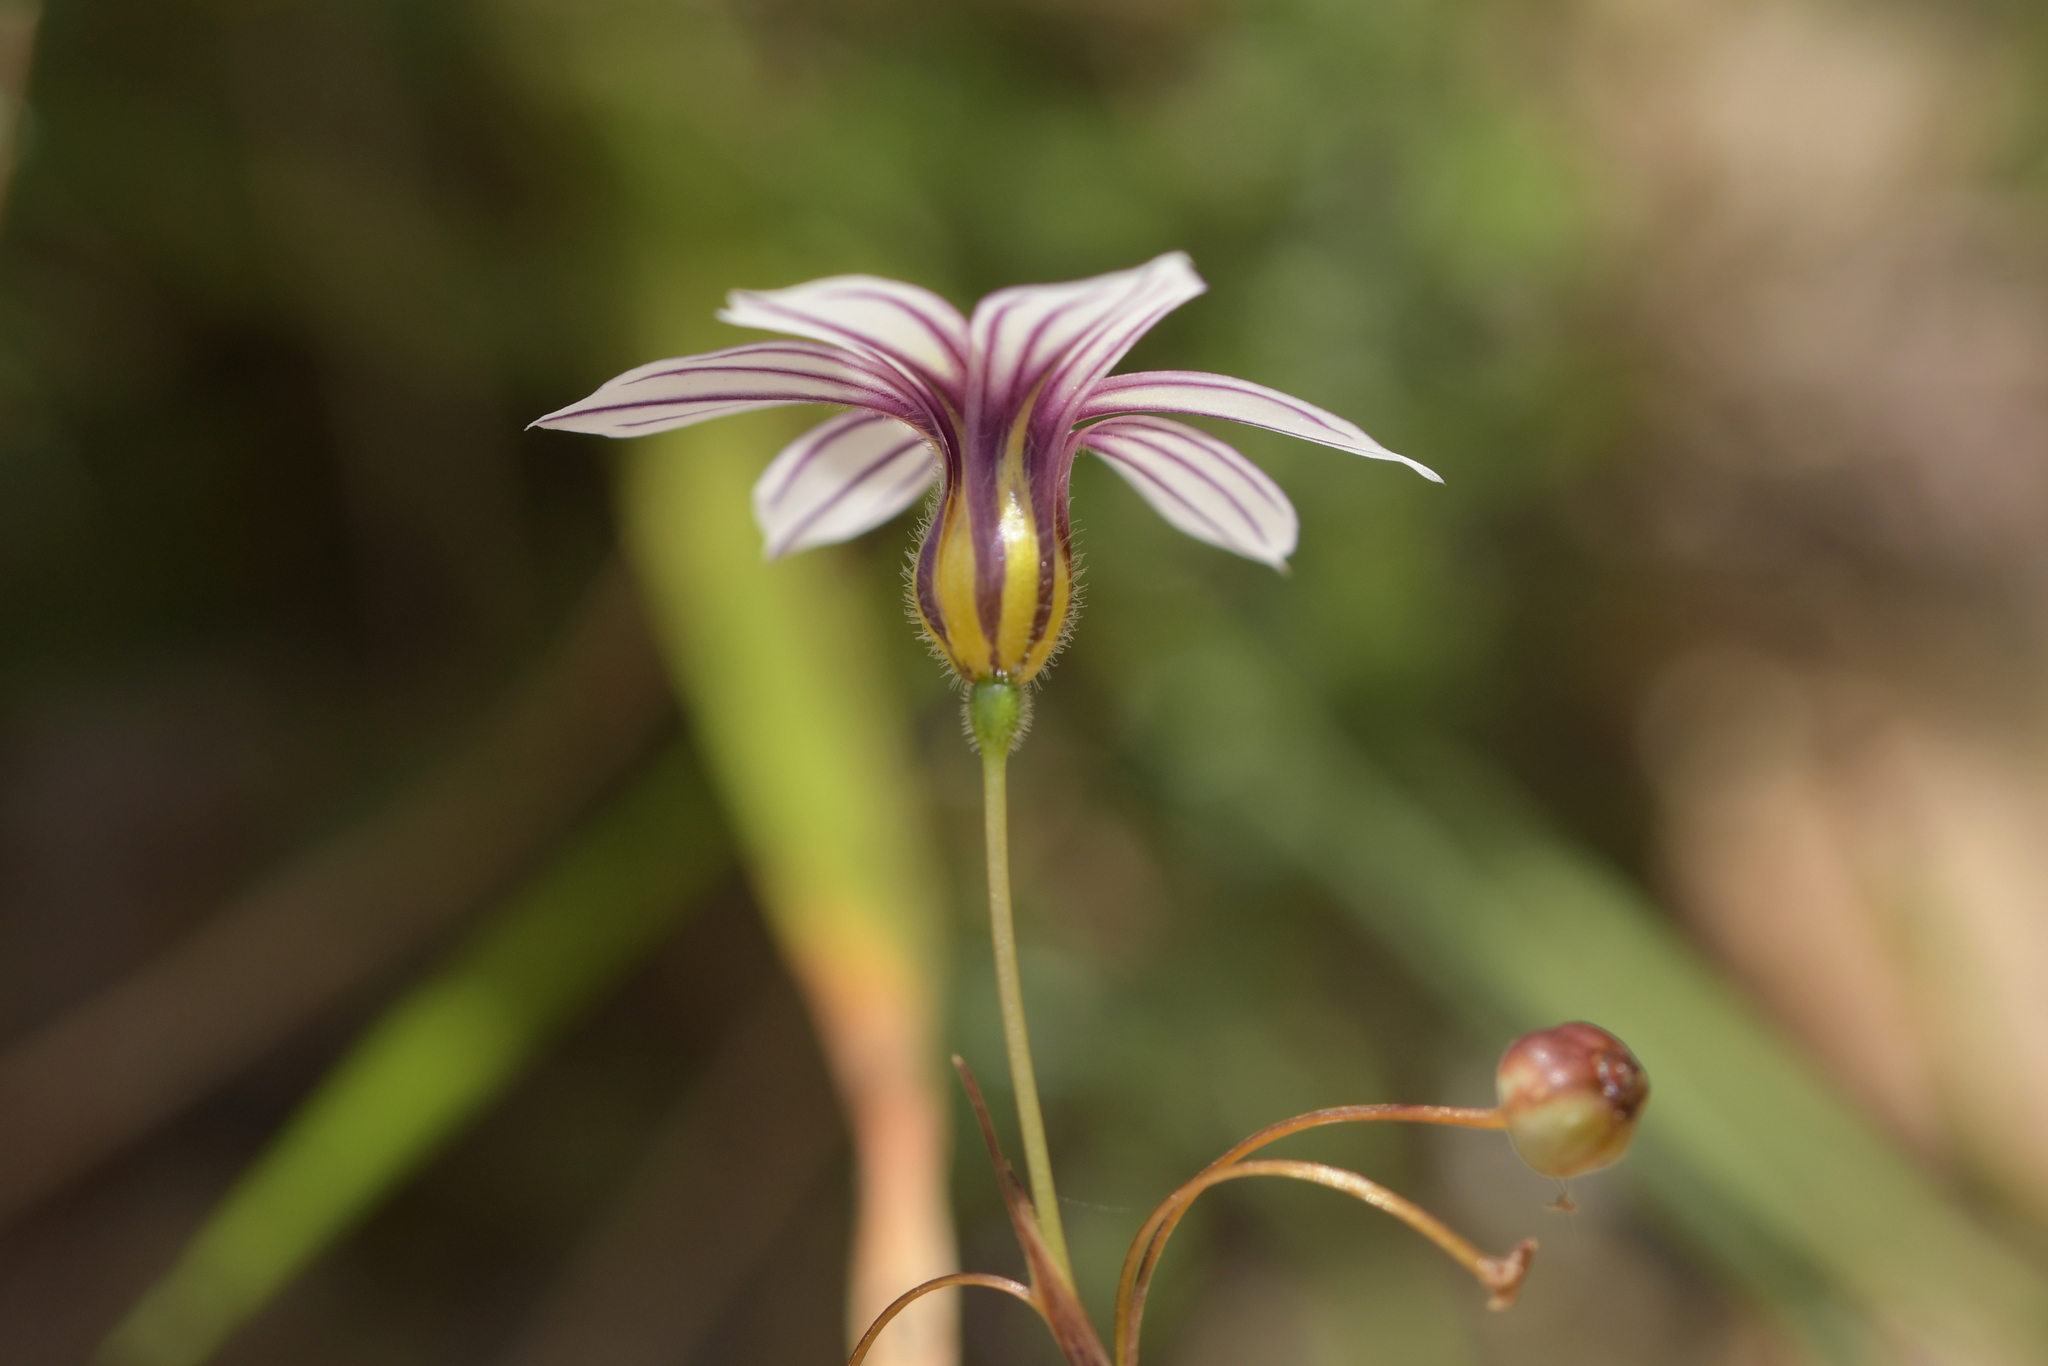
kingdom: Plantae
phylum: Tracheophyta
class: Liliopsida
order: Asparagales
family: Iridaceae
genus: Sisyrinchium
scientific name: Sisyrinchium micranthum
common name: Bermuda pigroot
